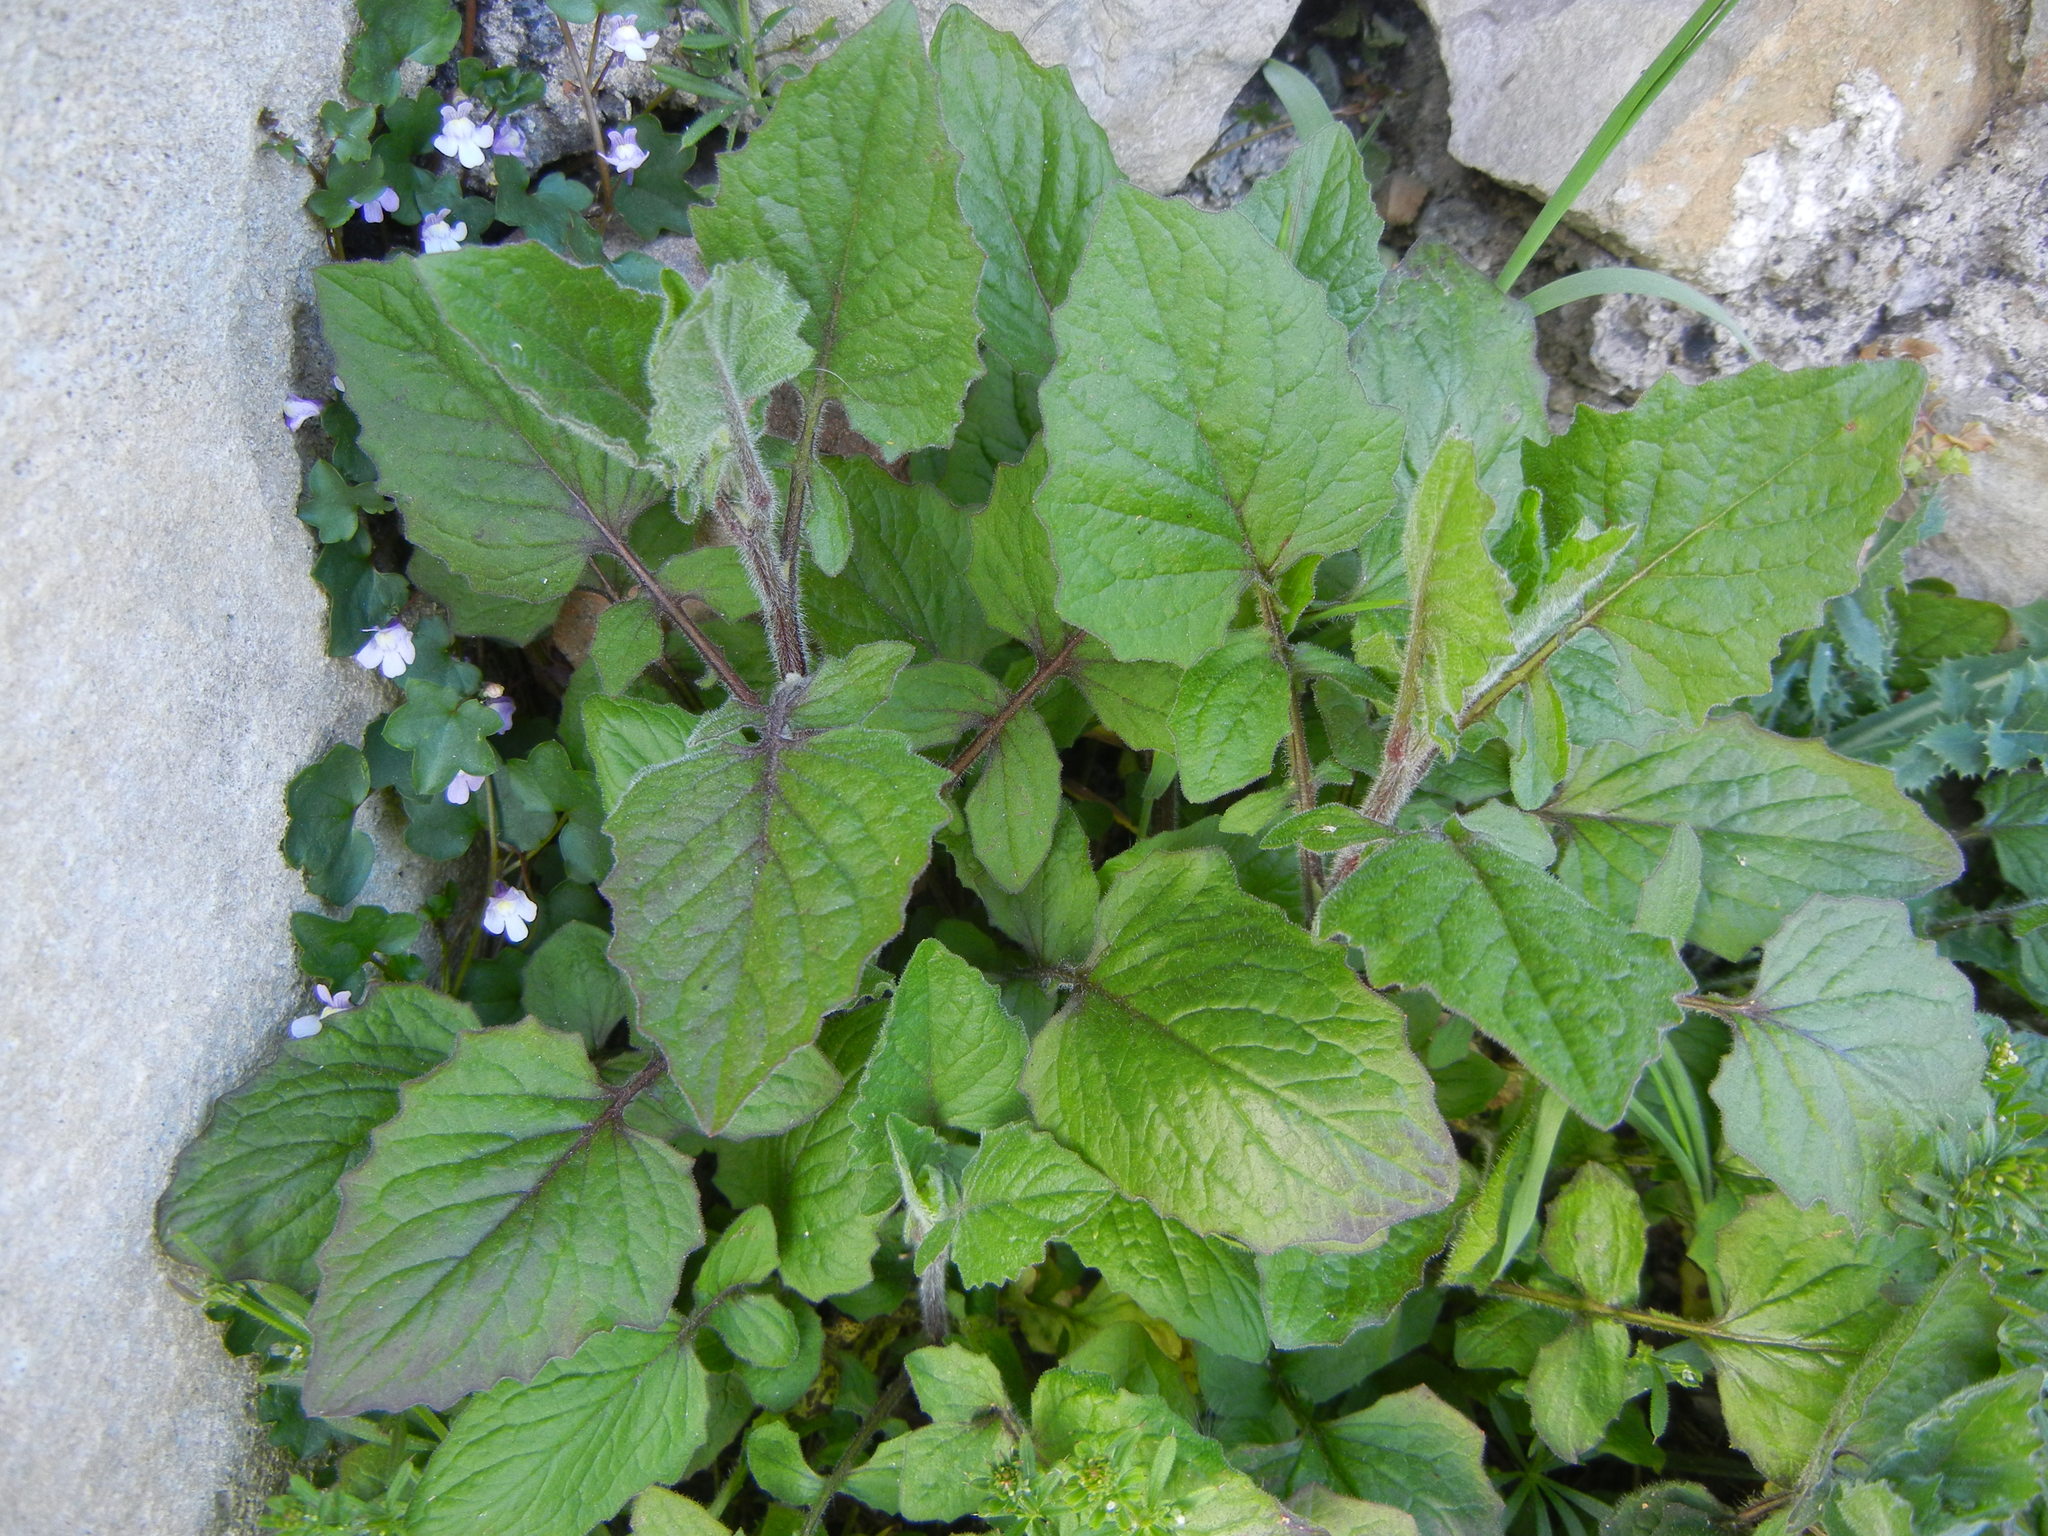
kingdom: Plantae
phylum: Tracheophyta
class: Magnoliopsida
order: Asterales
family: Asteraceae
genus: Lapsana
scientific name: Lapsana communis
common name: Nipplewort
